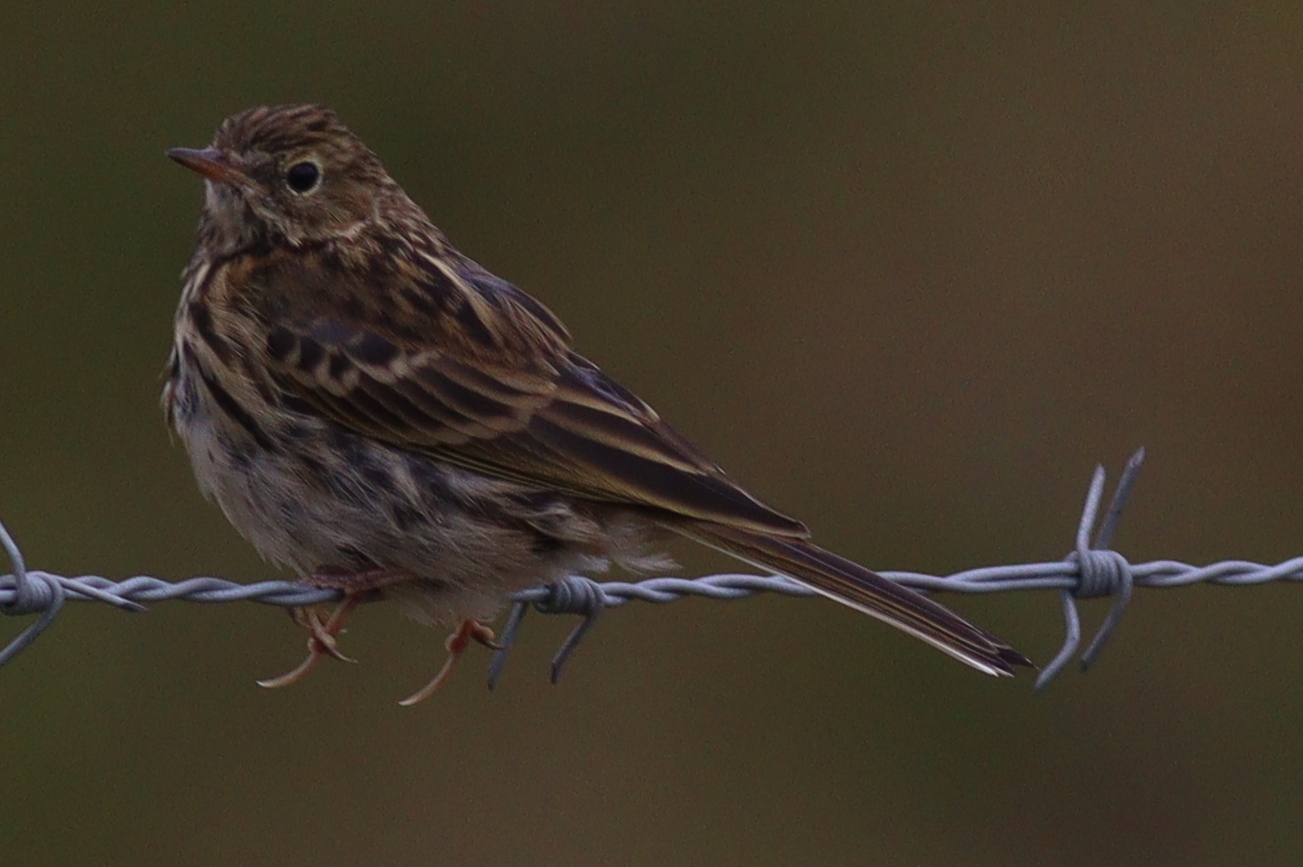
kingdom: Animalia
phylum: Chordata
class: Aves
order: Passeriformes
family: Motacillidae
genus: Anthus
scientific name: Anthus pratensis
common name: Meadow pipit
